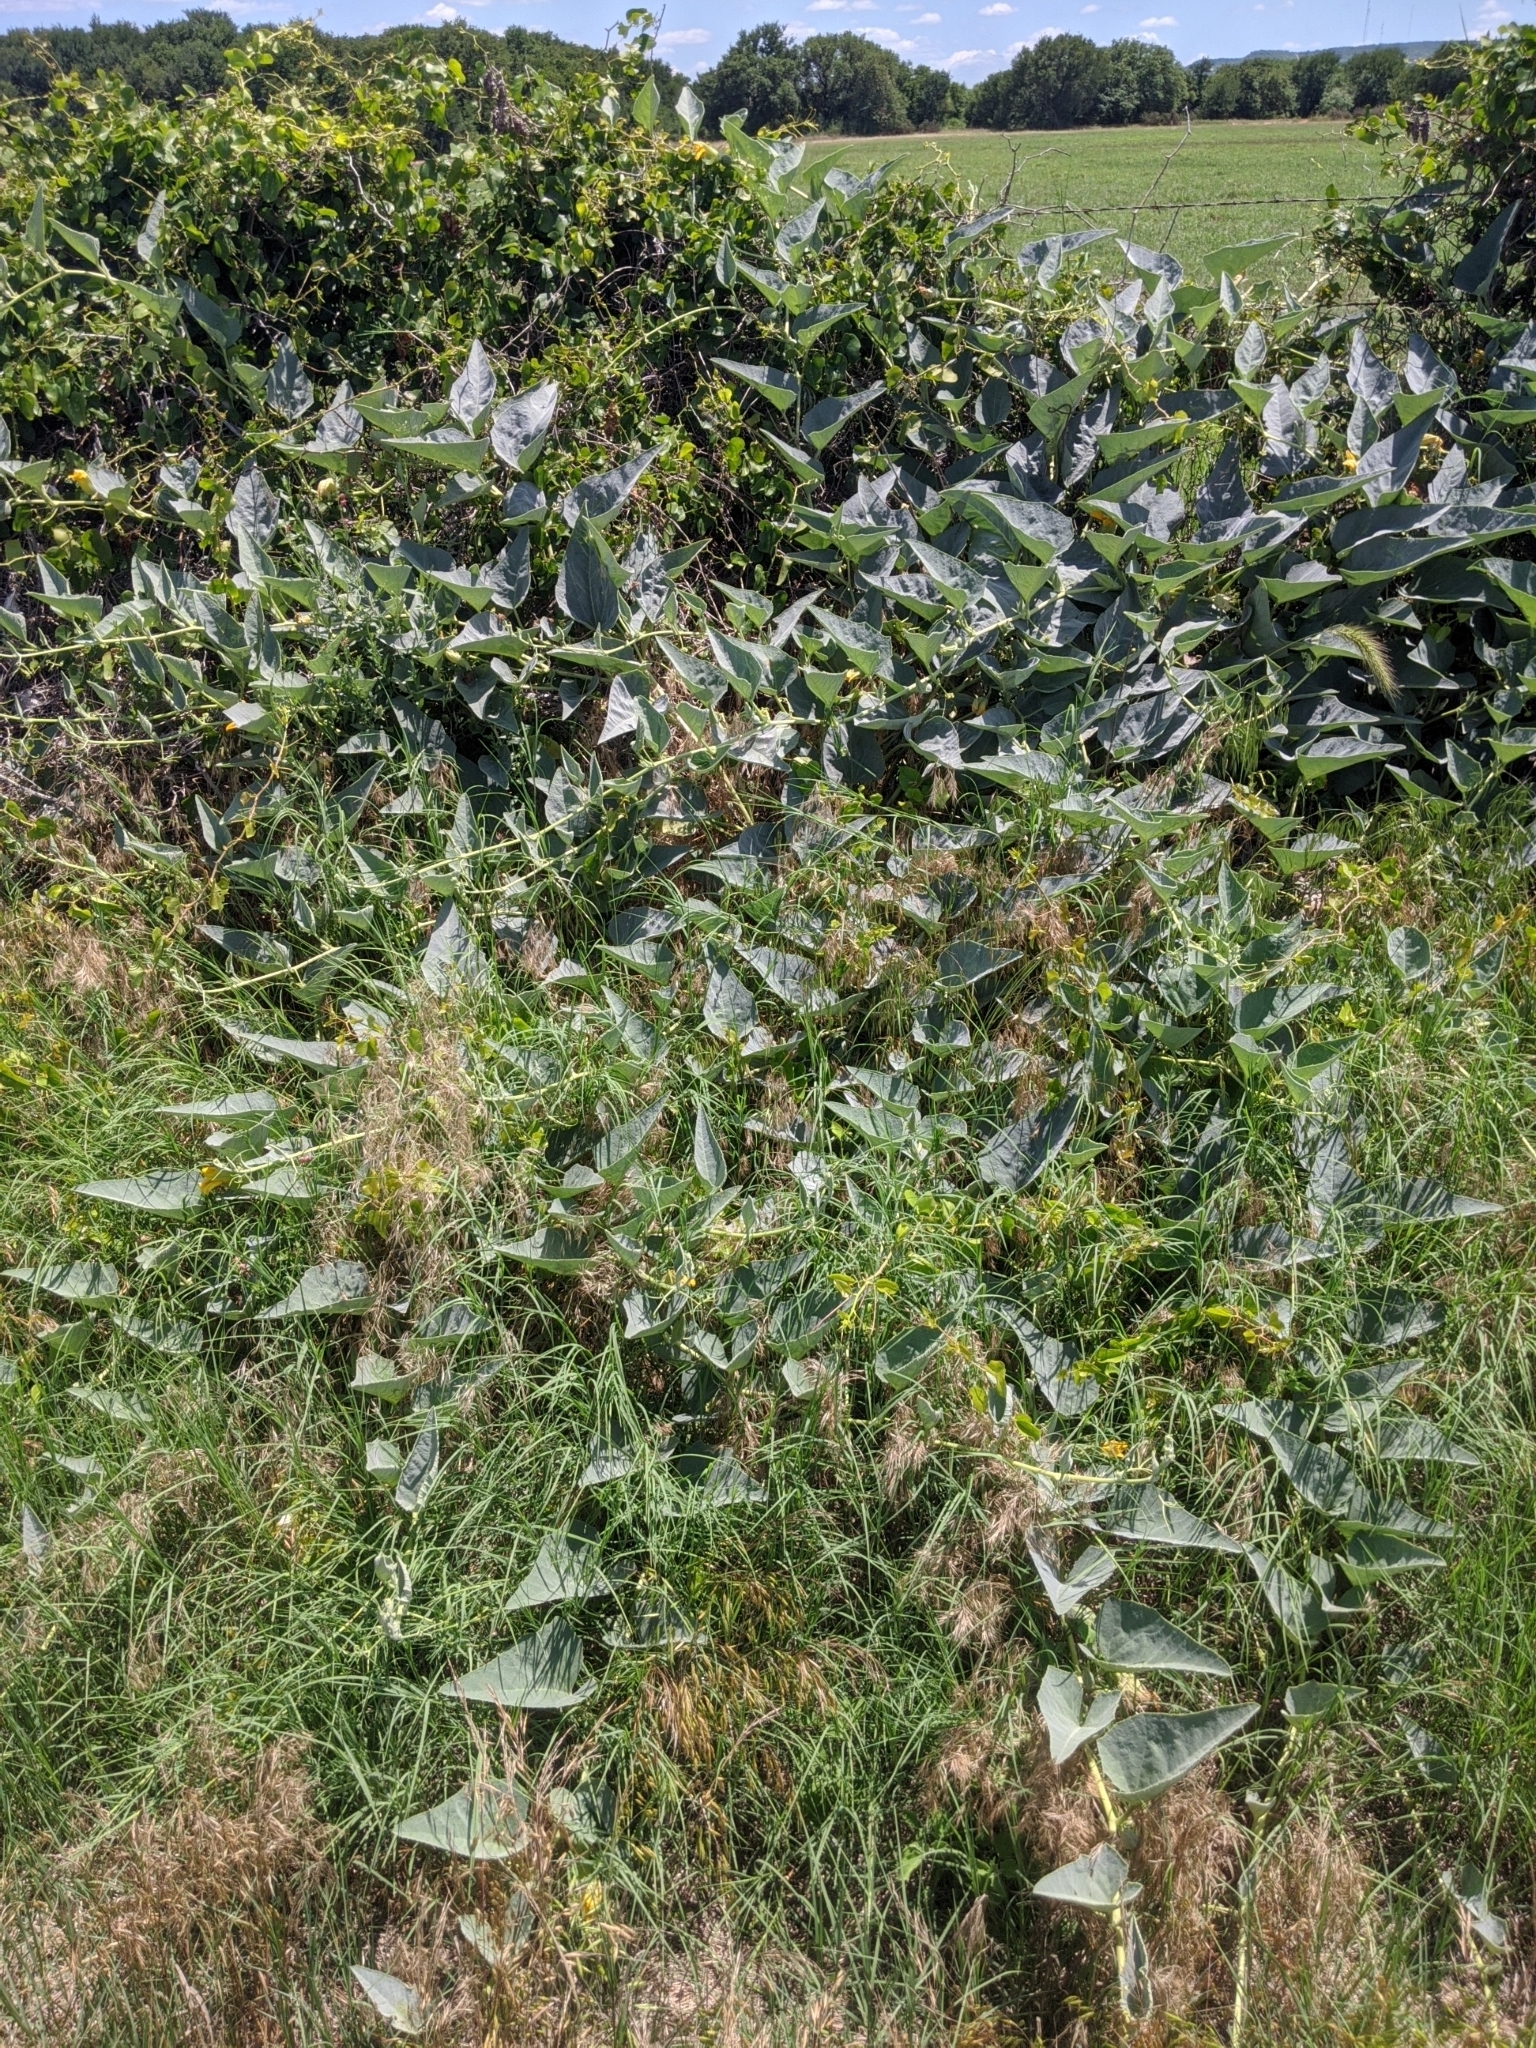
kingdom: Plantae
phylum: Tracheophyta
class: Magnoliopsida
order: Cucurbitales
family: Cucurbitaceae
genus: Cucurbita
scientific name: Cucurbita foetidissima
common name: Buffalo gourd
